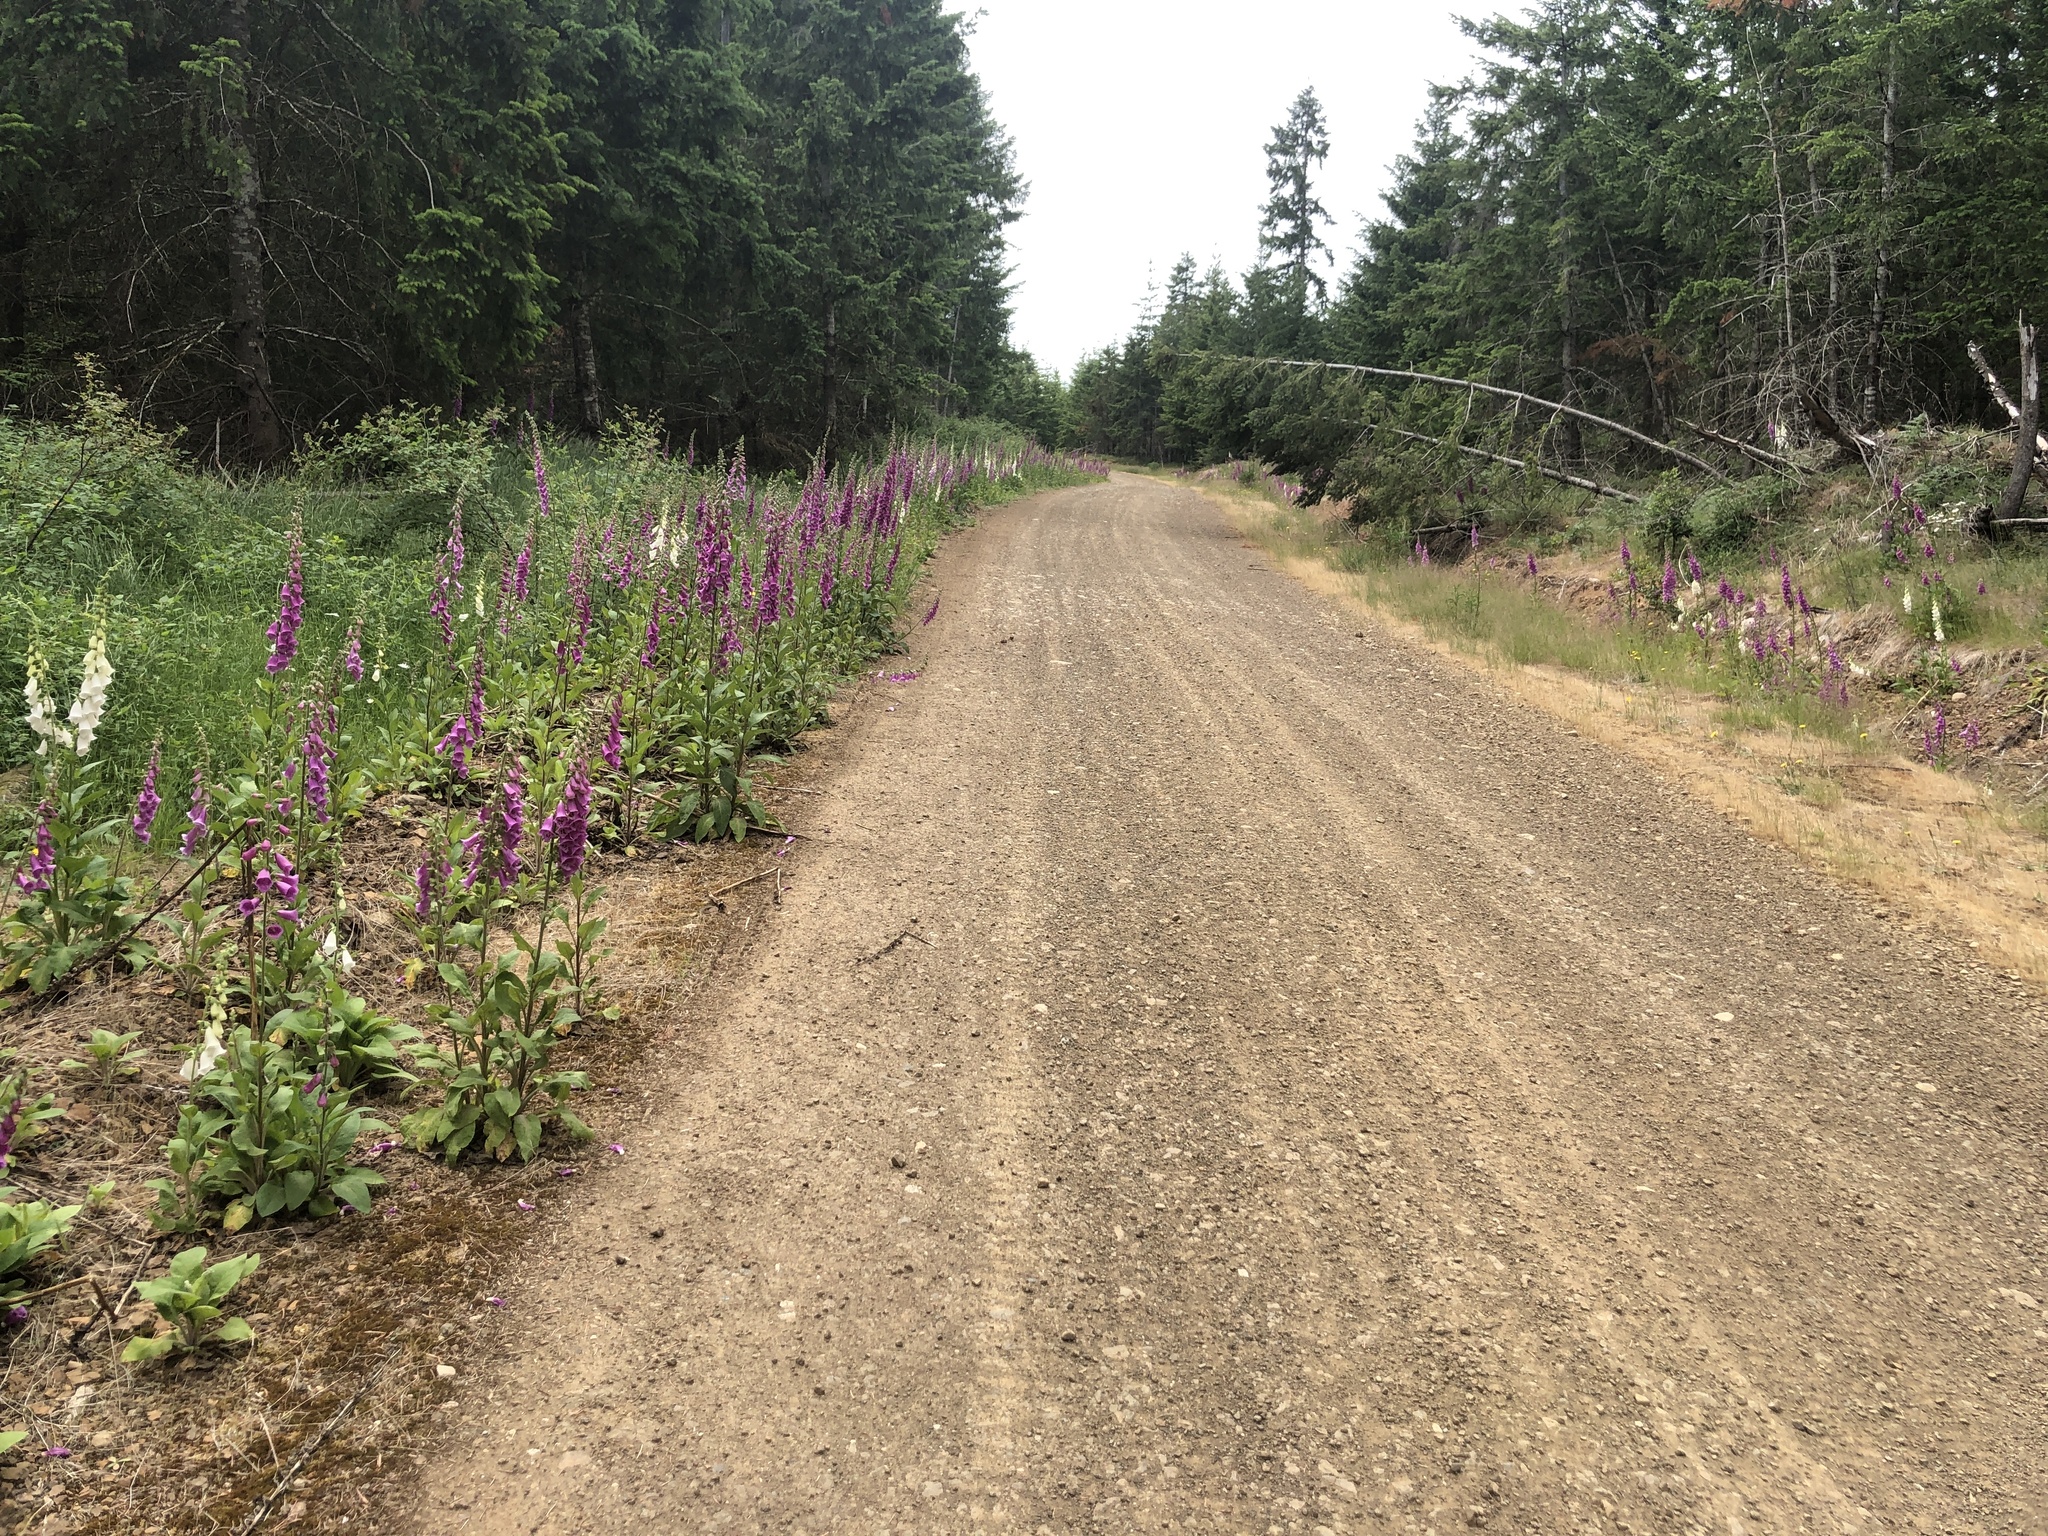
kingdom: Plantae
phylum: Tracheophyta
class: Magnoliopsida
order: Lamiales
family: Plantaginaceae
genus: Digitalis
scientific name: Digitalis purpurea
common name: Foxglove
